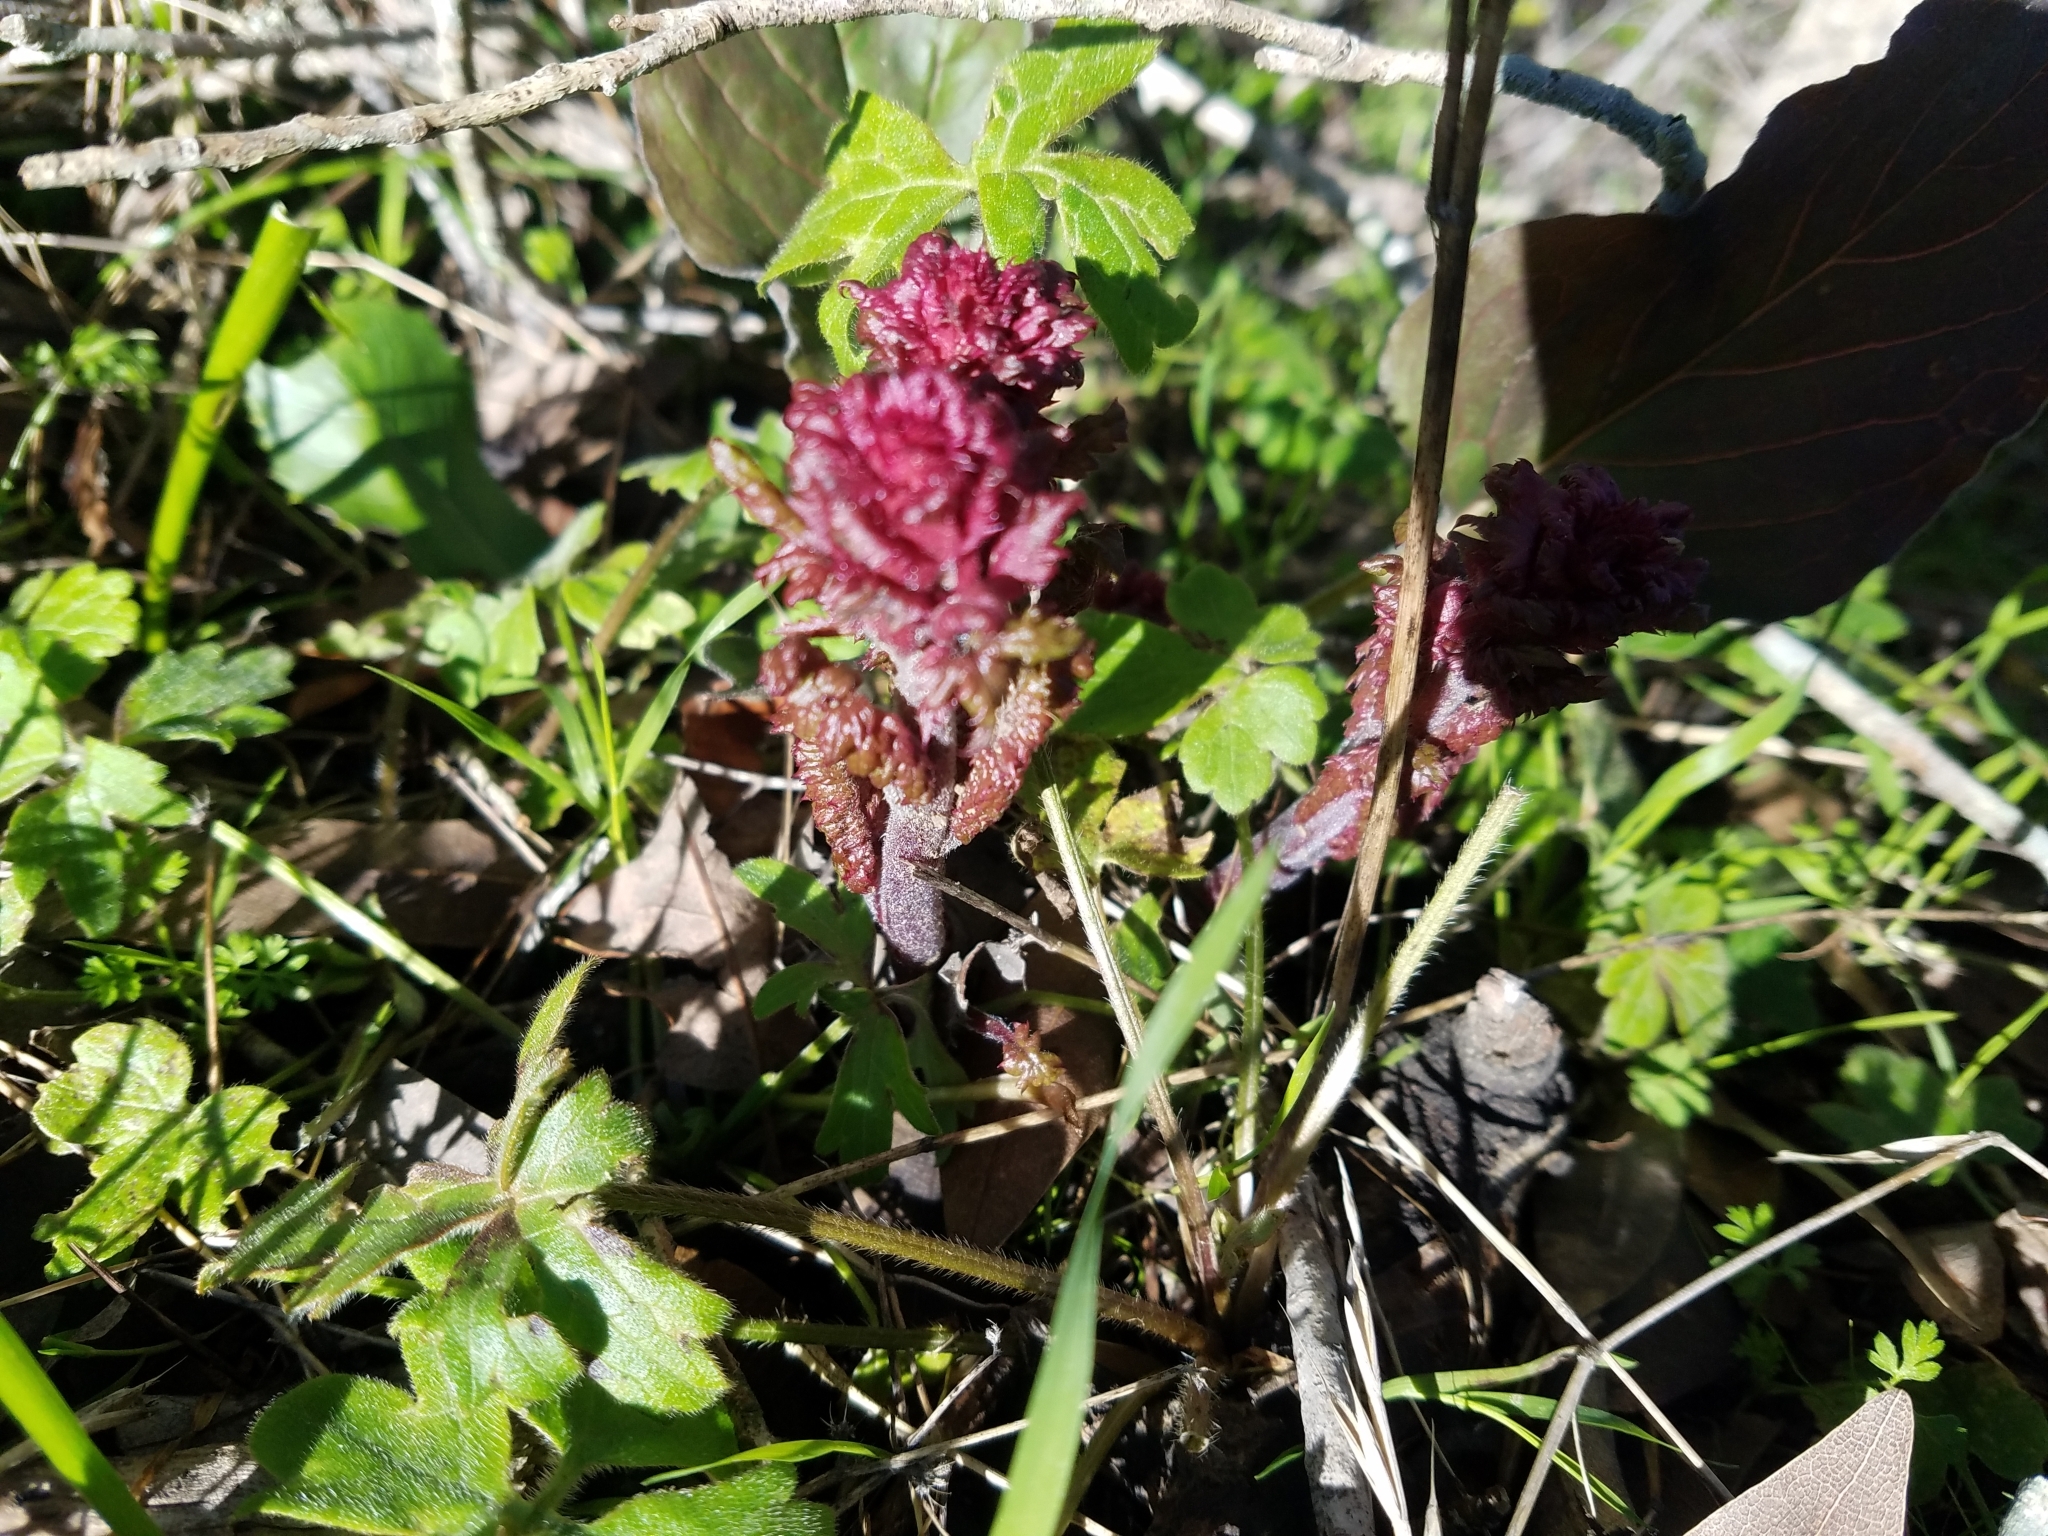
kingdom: Plantae
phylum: Tracheophyta
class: Magnoliopsida
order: Lamiales
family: Orobanchaceae
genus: Pedicularis
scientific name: Pedicularis densiflora
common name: Indian warrior
